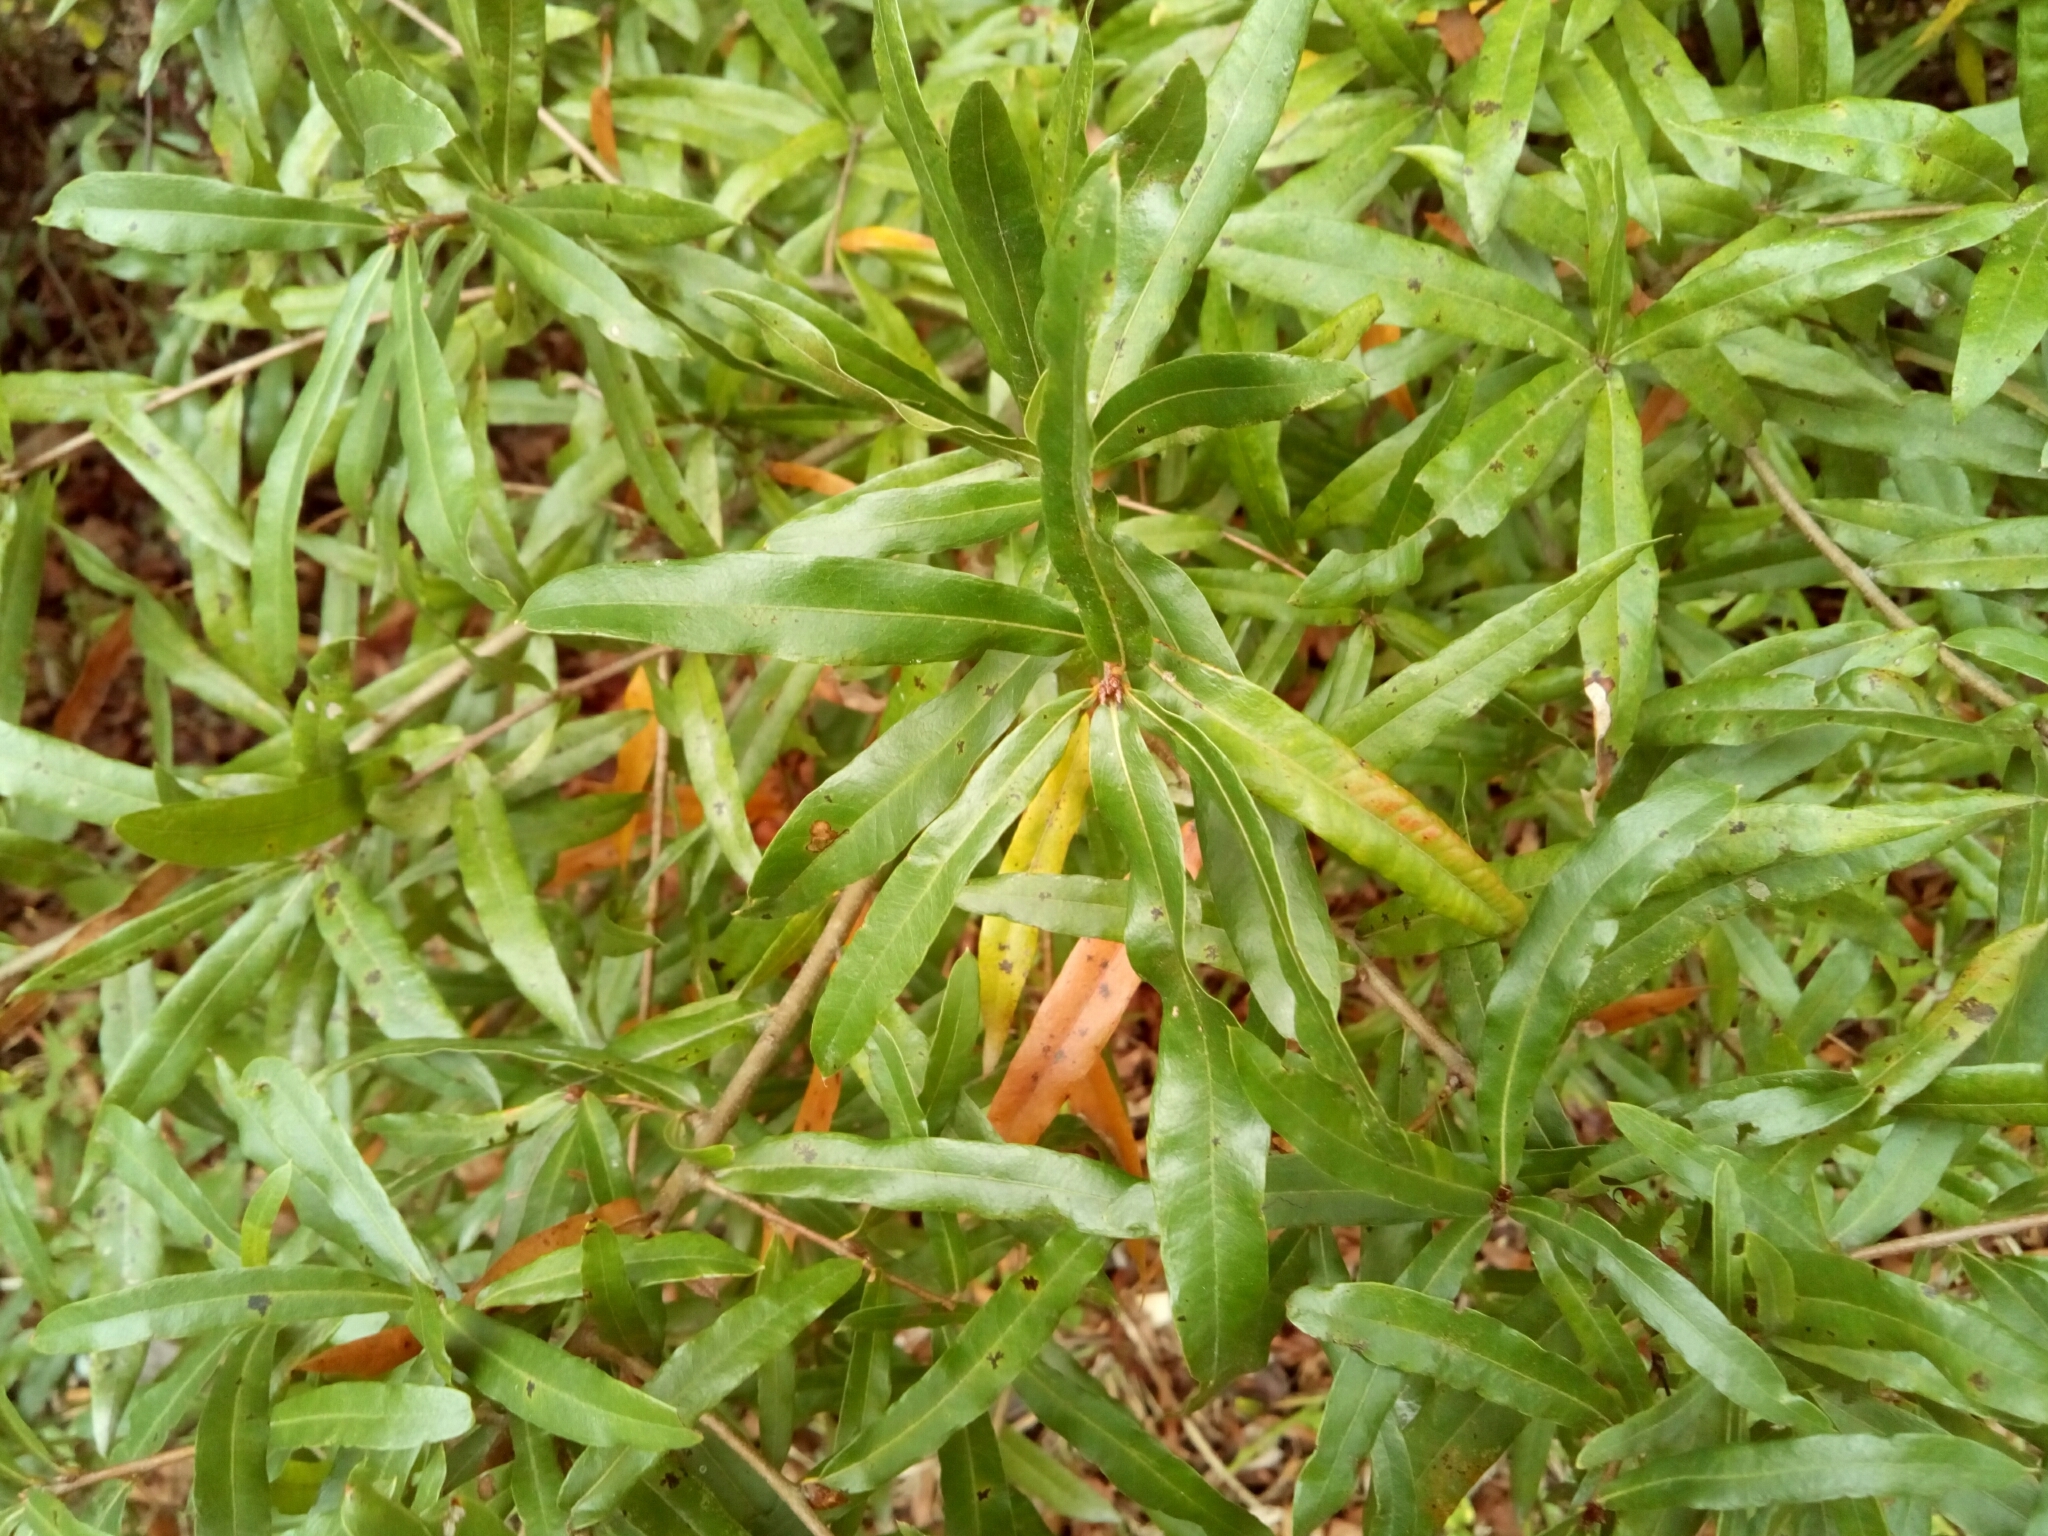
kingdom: Plantae
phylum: Tracheophyta
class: Magnoliopsida
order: Fagales
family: Fagaceae
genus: Quercus
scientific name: Quercus phellos
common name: Willow oak
